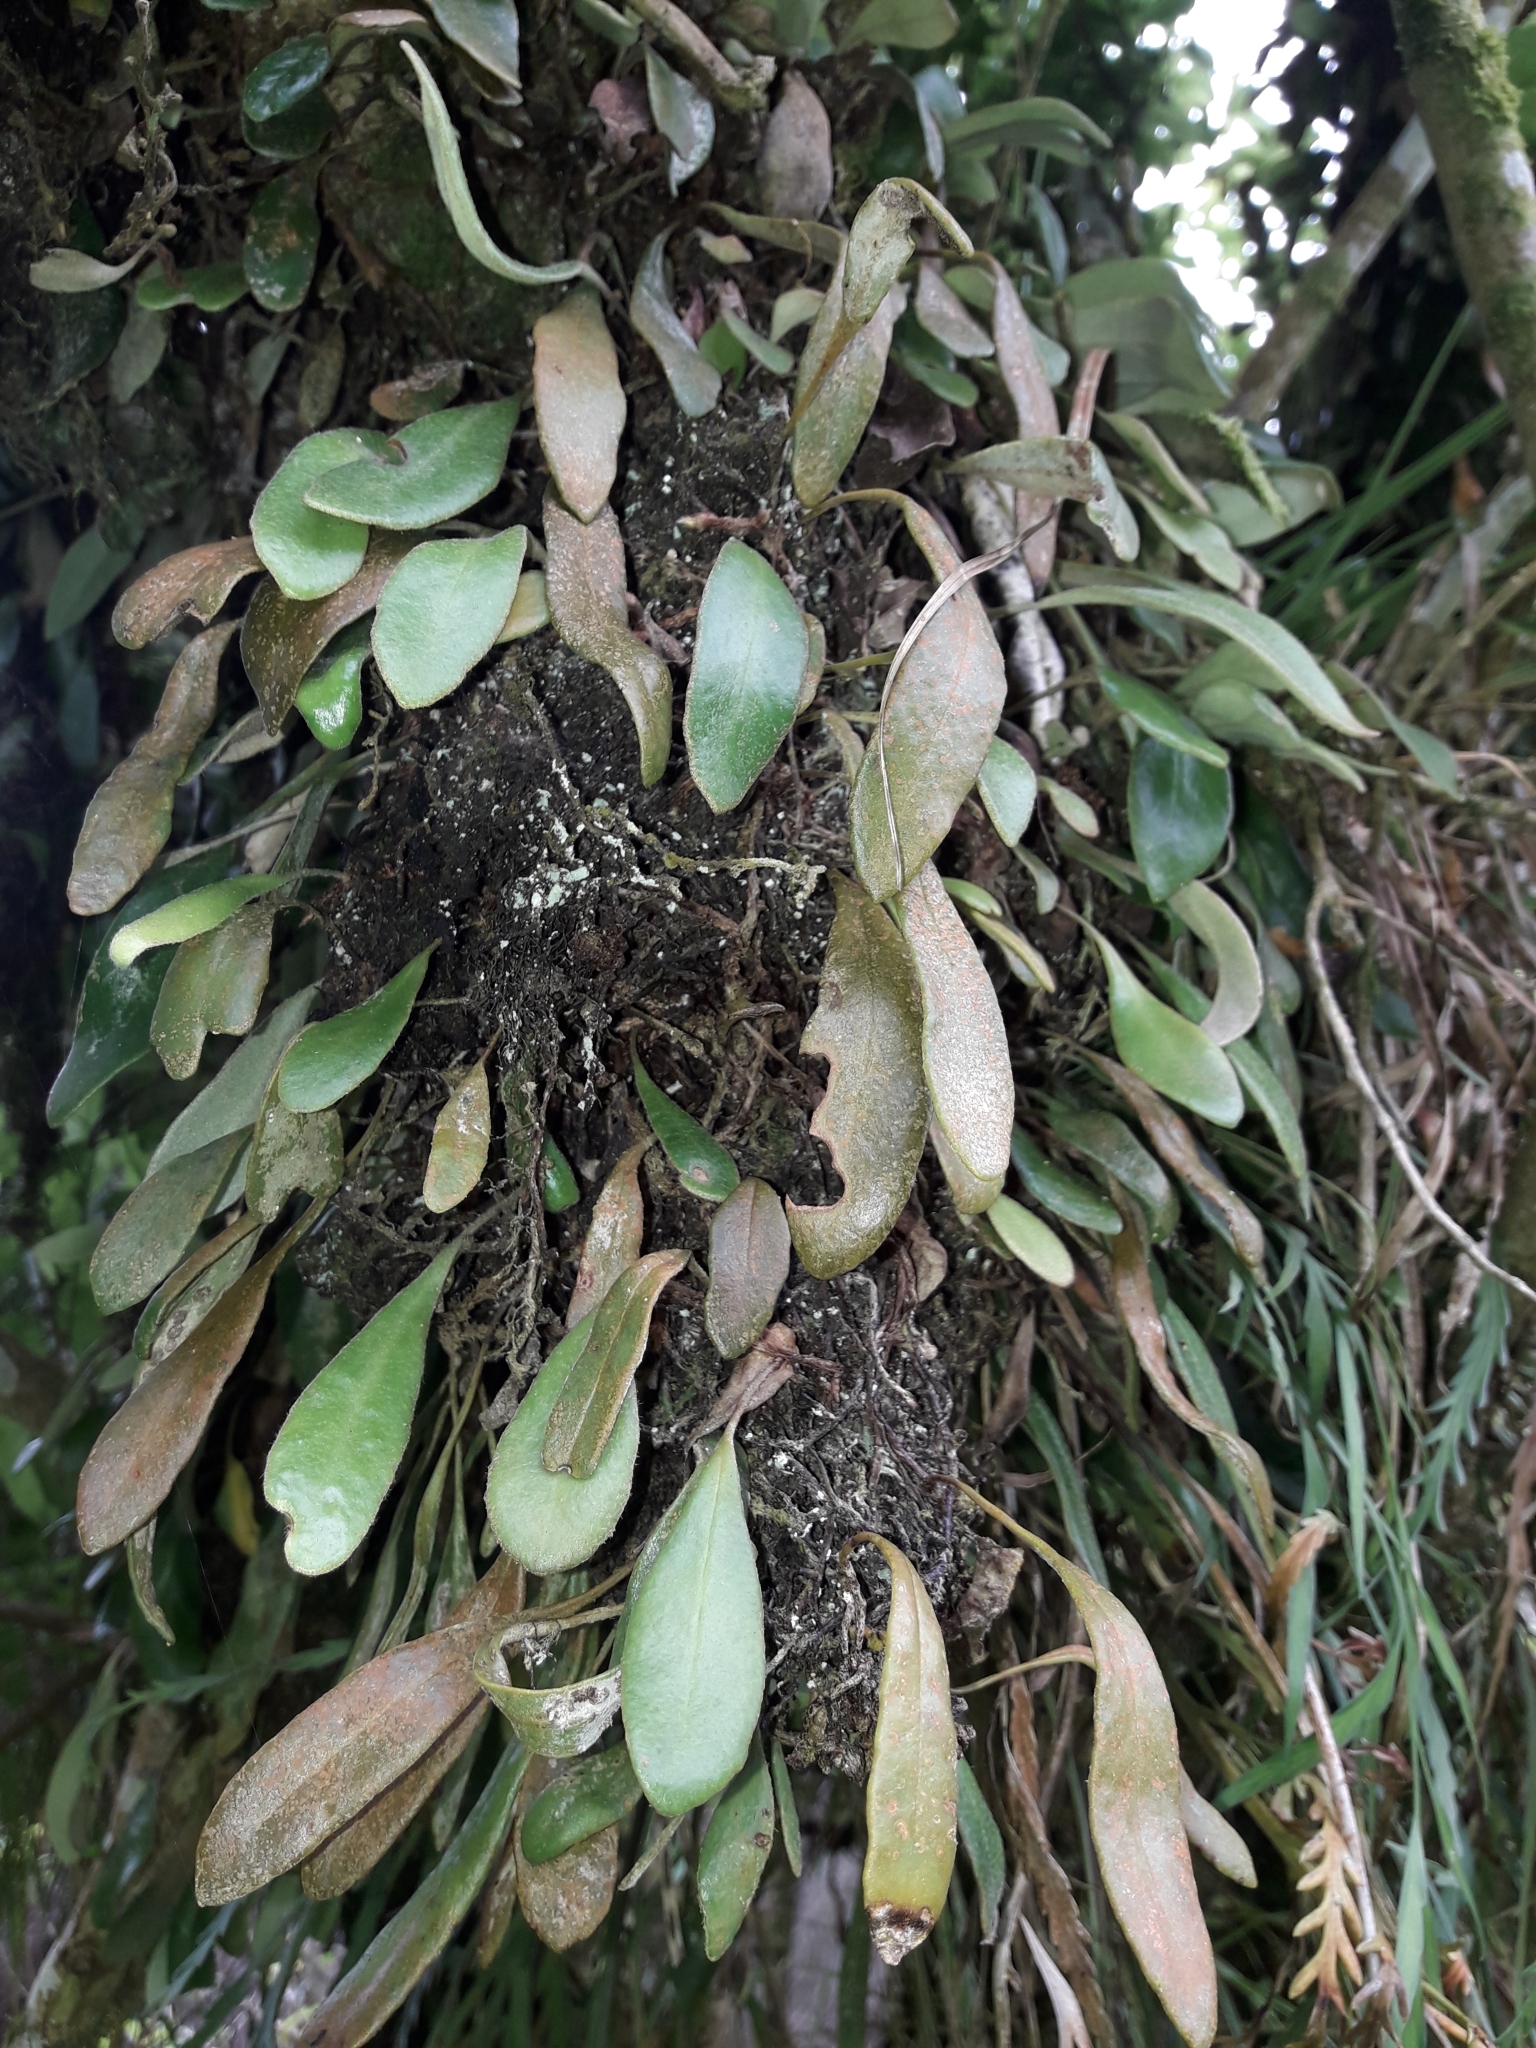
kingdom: Plantae
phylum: Tracheophyta
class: Polypodiopsida
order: Polypodiales
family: Polypodiaceae
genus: Pyrrosia
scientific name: Pyrrosia eleagnifolia
